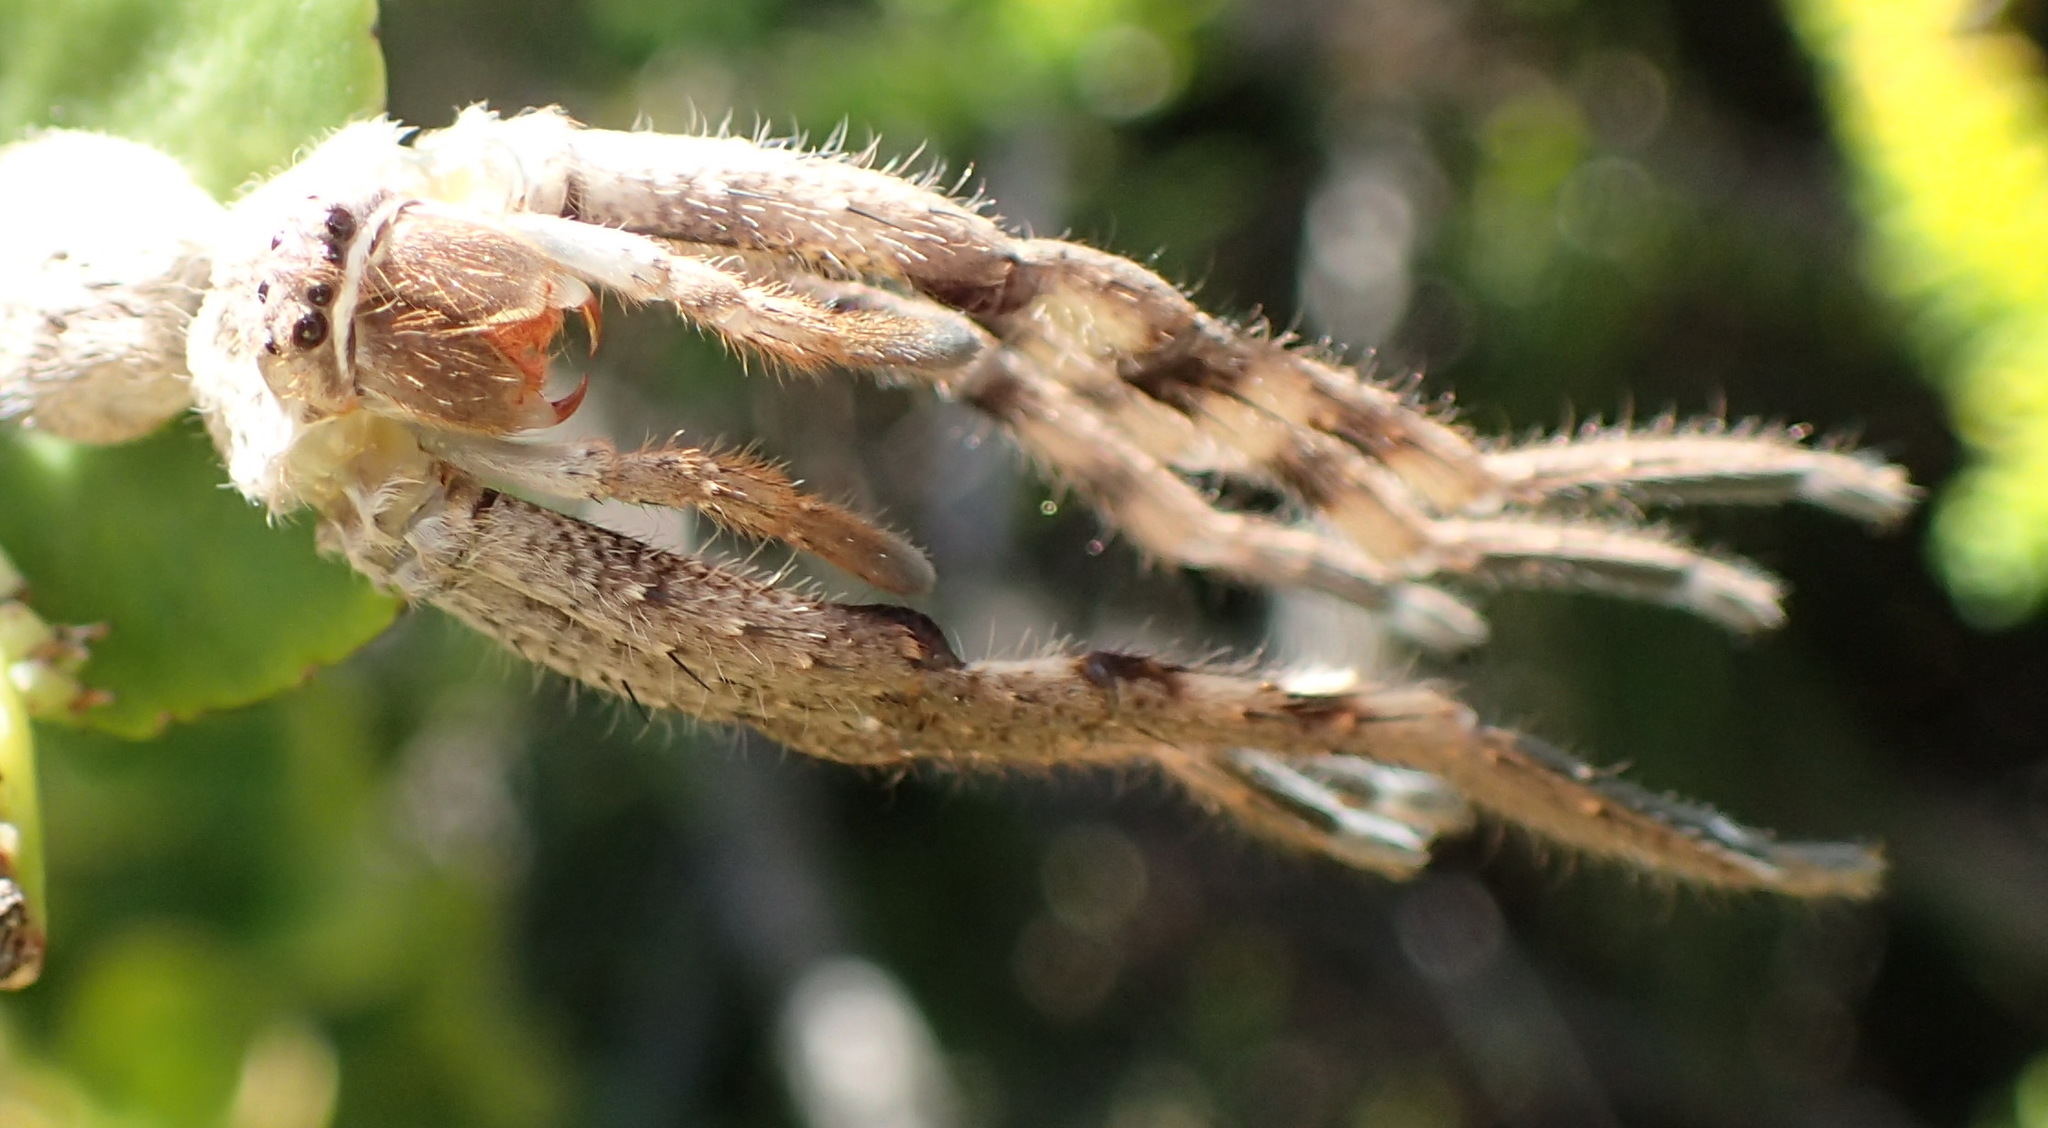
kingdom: Animalia
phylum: Arthropoda
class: Arachnida
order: Araneae
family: Sparassidae
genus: Palystes
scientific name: Palystes superciliosus
